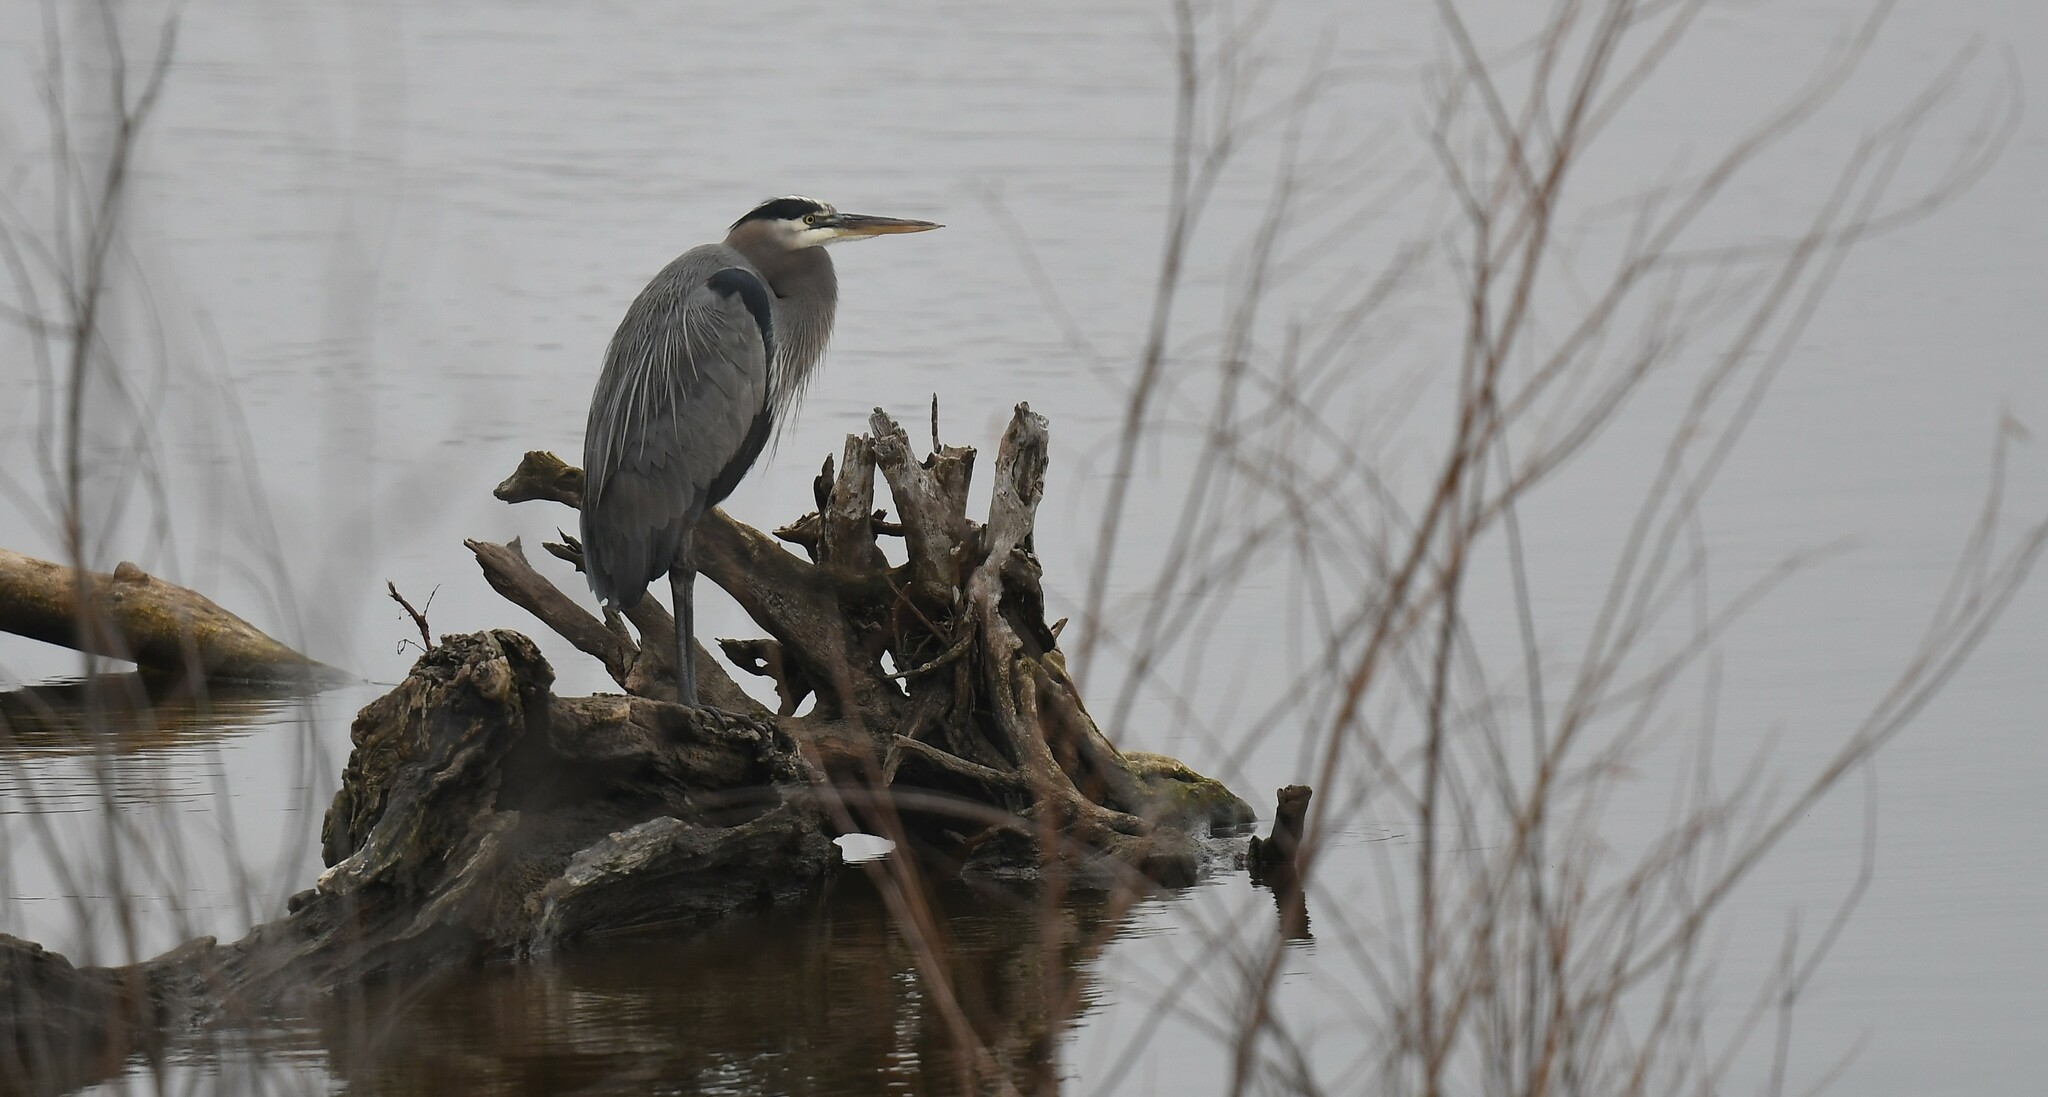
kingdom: Animalia
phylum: Chordata
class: Aves
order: Pelecaniformes
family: Ardeidae
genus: Ardea
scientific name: Ardea herodias
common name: Great blue heron
